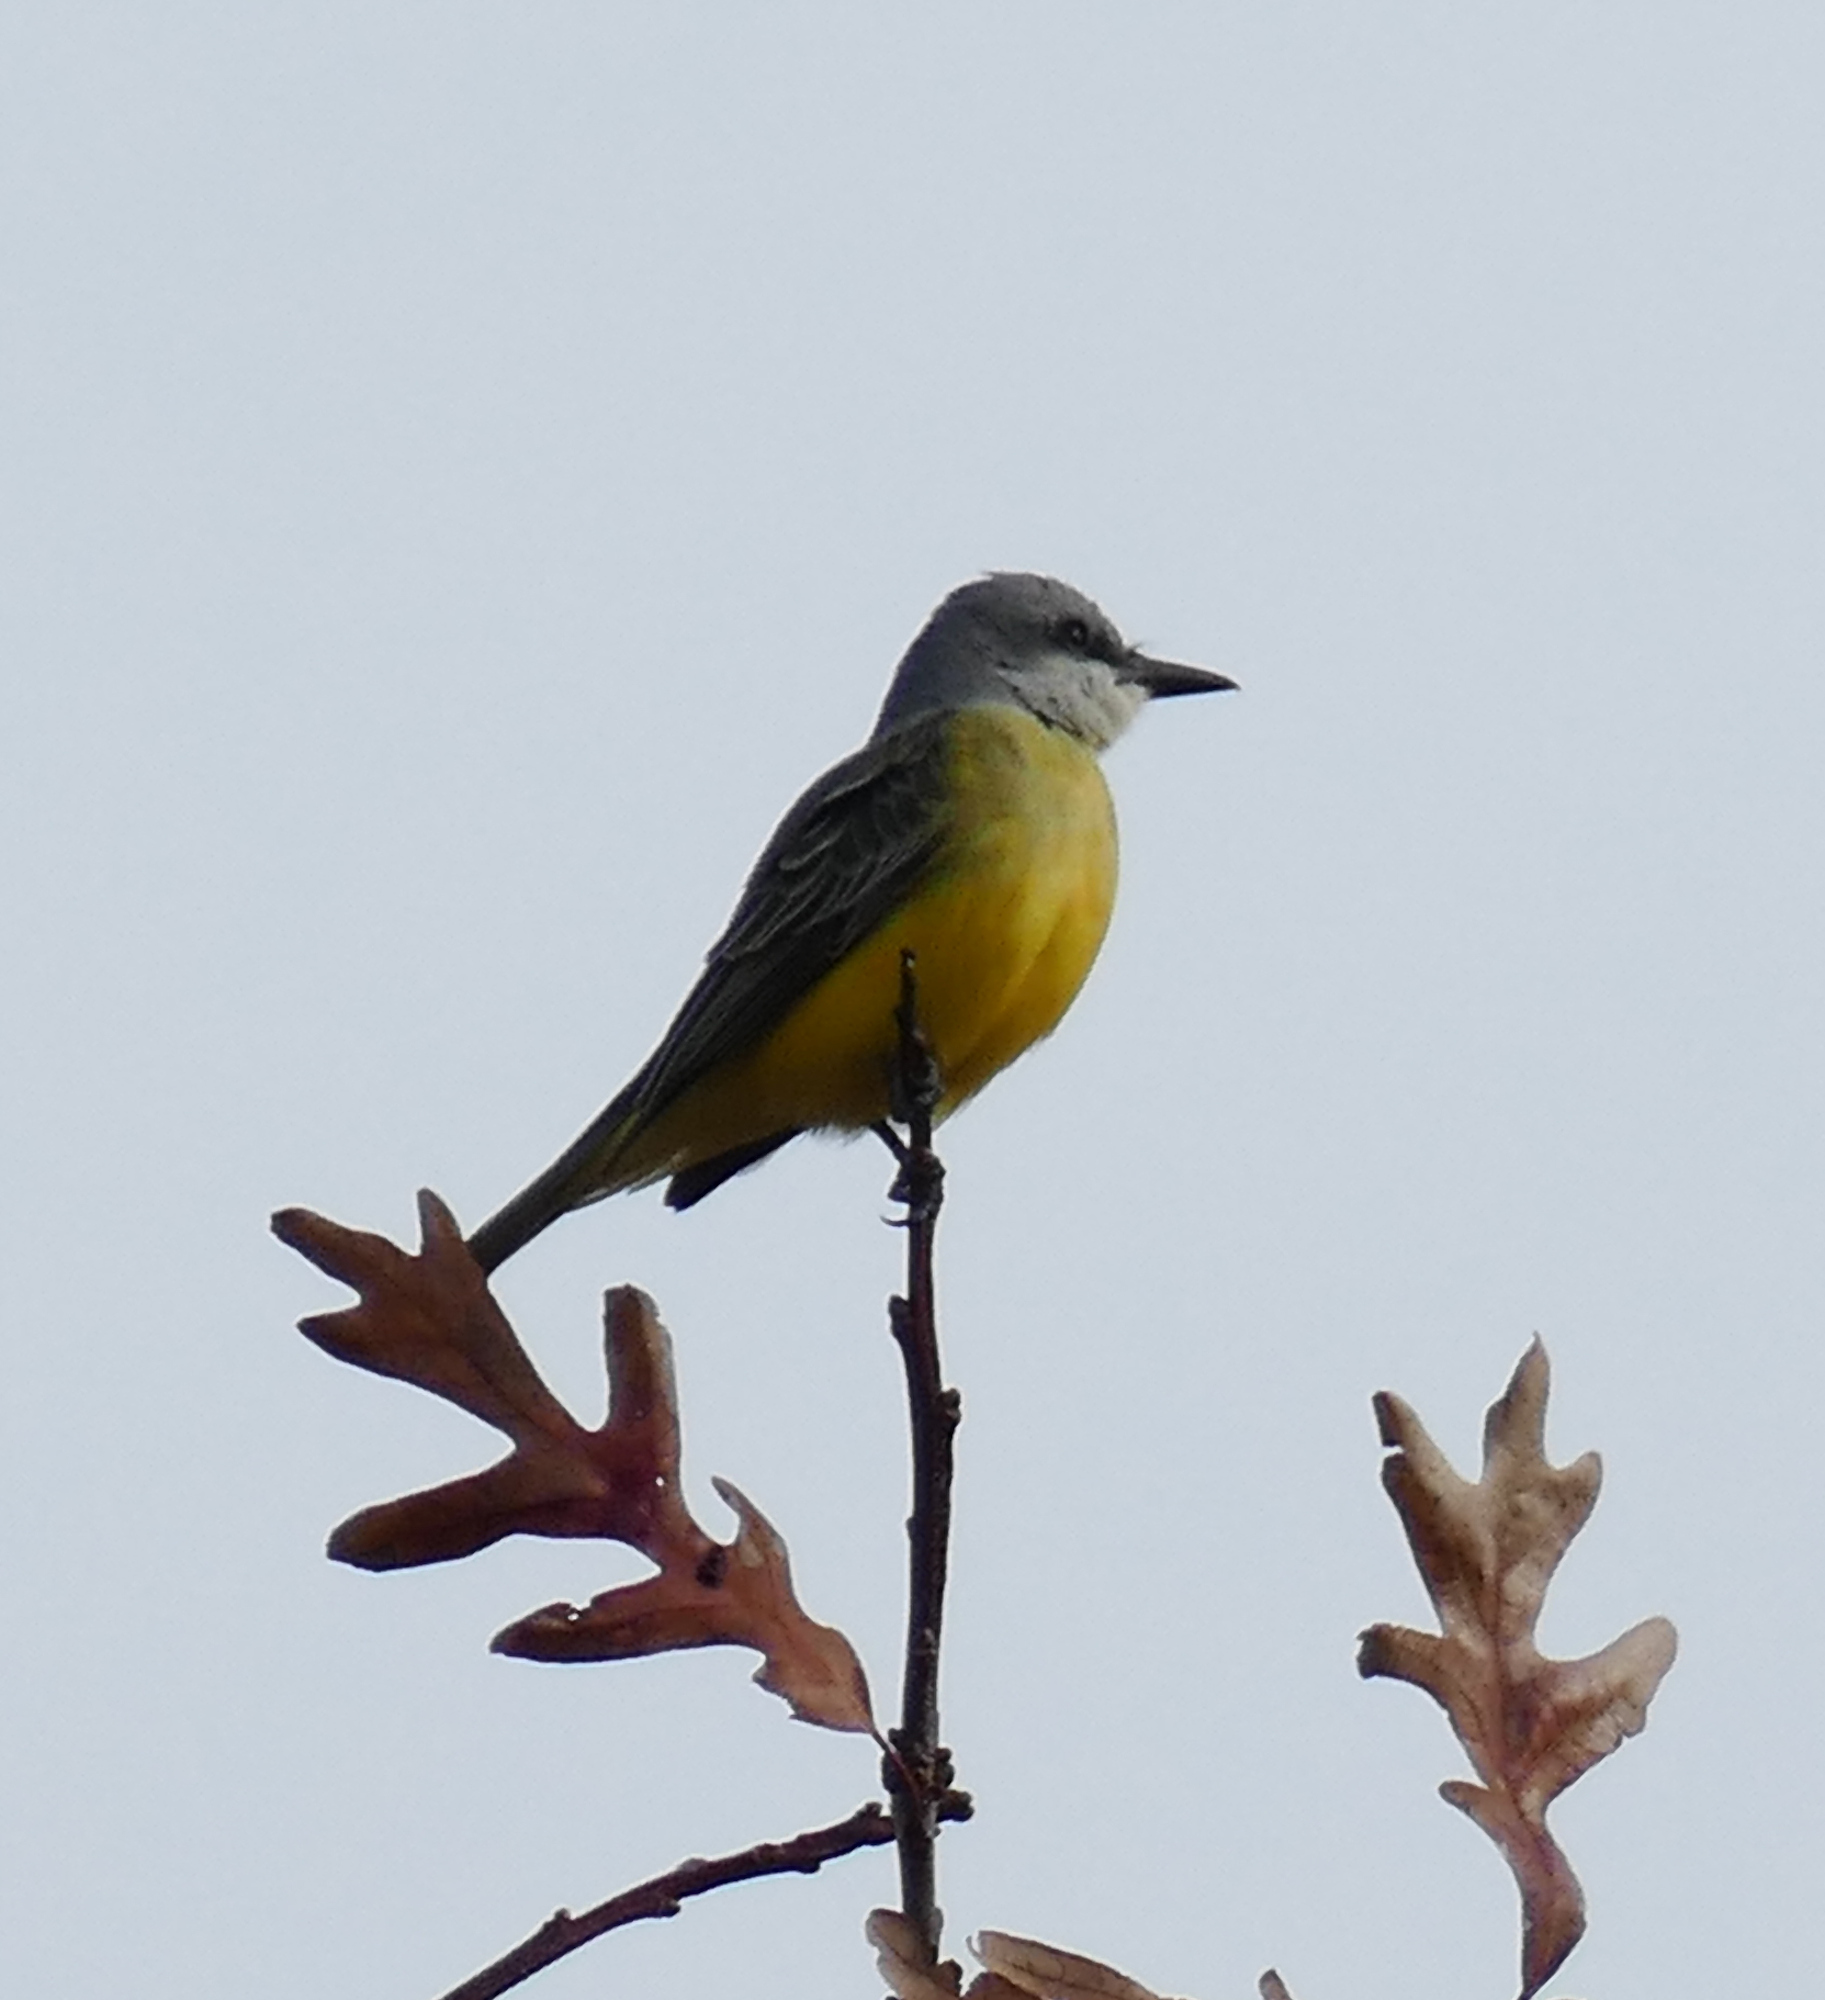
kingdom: Animalia
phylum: Chordata
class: Aves
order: Passeriformes
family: Tyrannidae
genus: Tyrannus
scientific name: Tyrannus melancholicus
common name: Tropical kingbird
